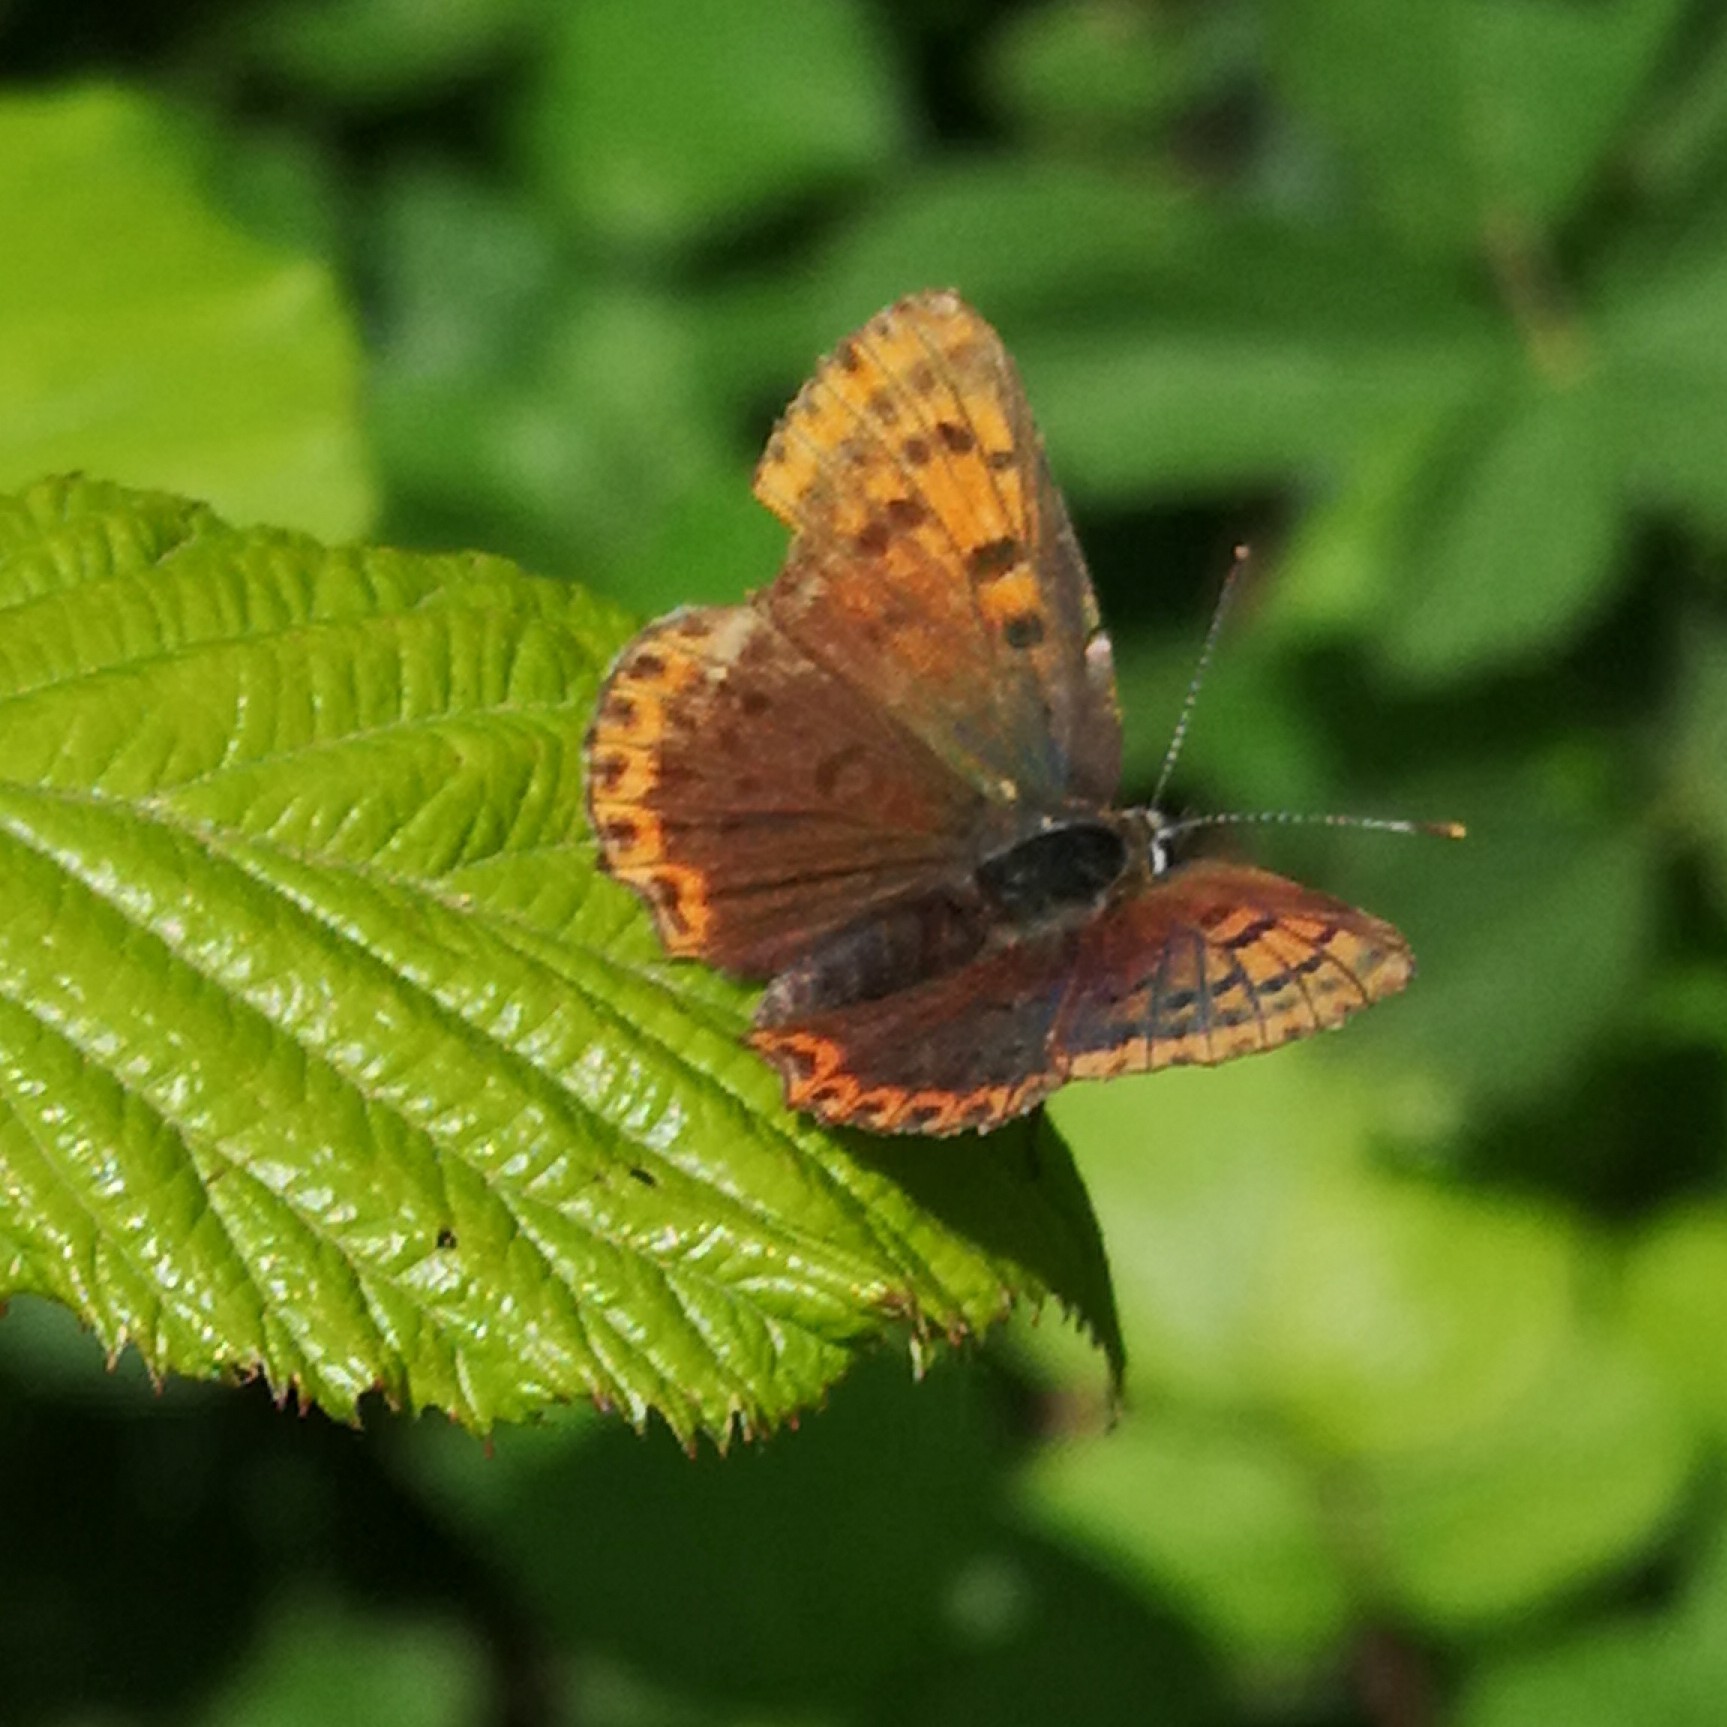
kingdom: Animalia
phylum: Arthropoda
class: Insecta
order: Lepidoptera
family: Lycaenidae
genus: Loweia
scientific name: Loweia tityrus
